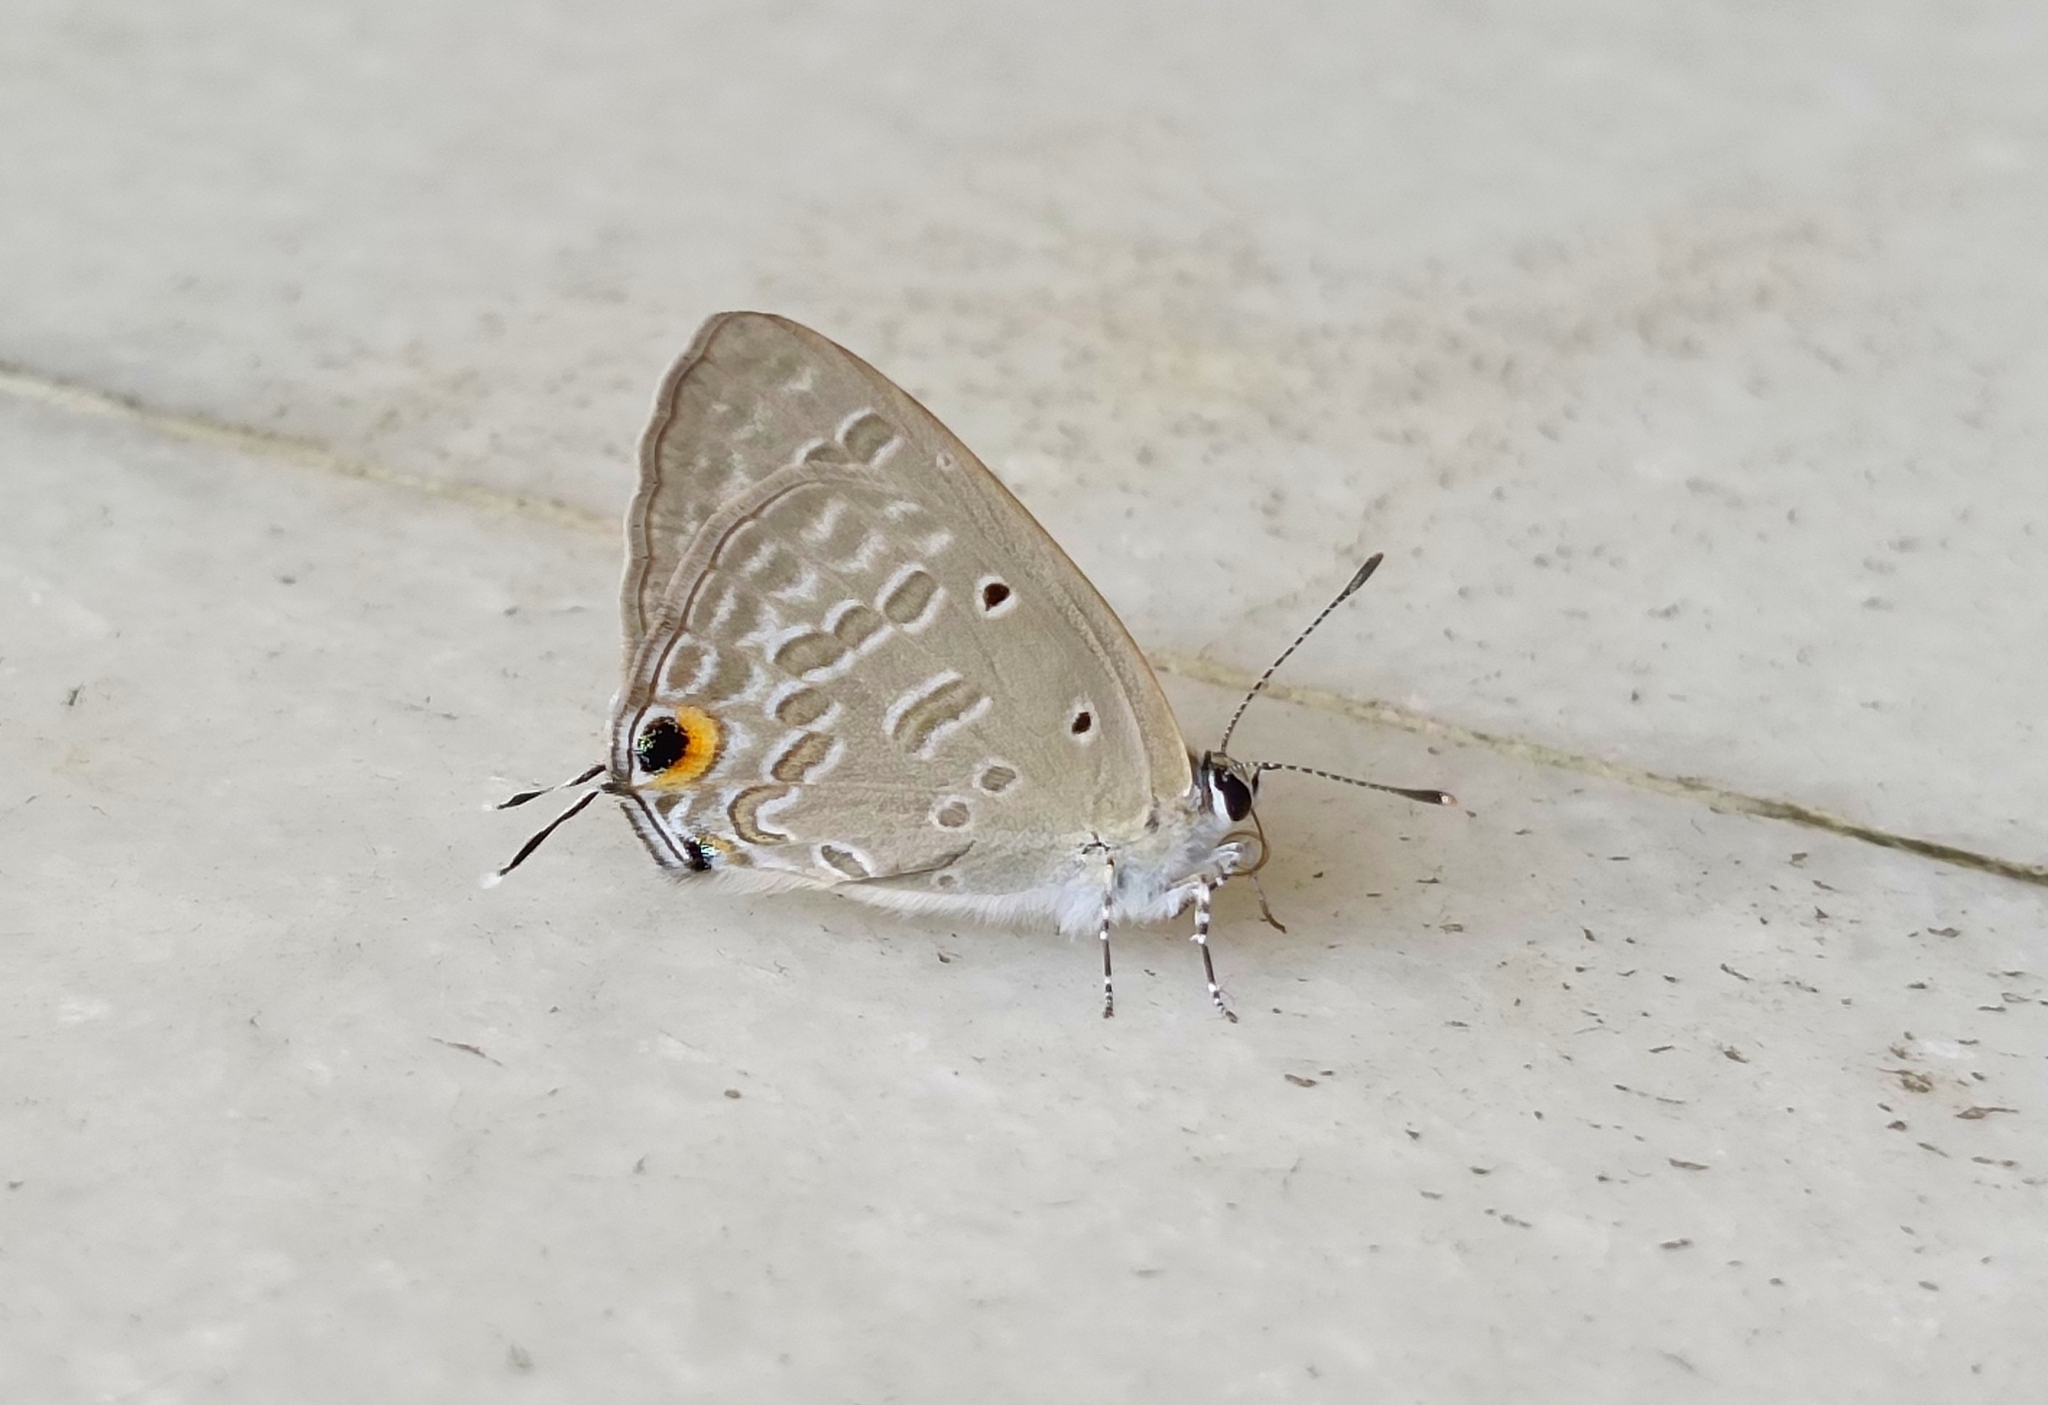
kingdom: Animalia
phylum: Arthropoda
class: Insecta
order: Lepidoptera
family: Lycaenidae
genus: Catochrysops
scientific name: Catochrysops strabo
